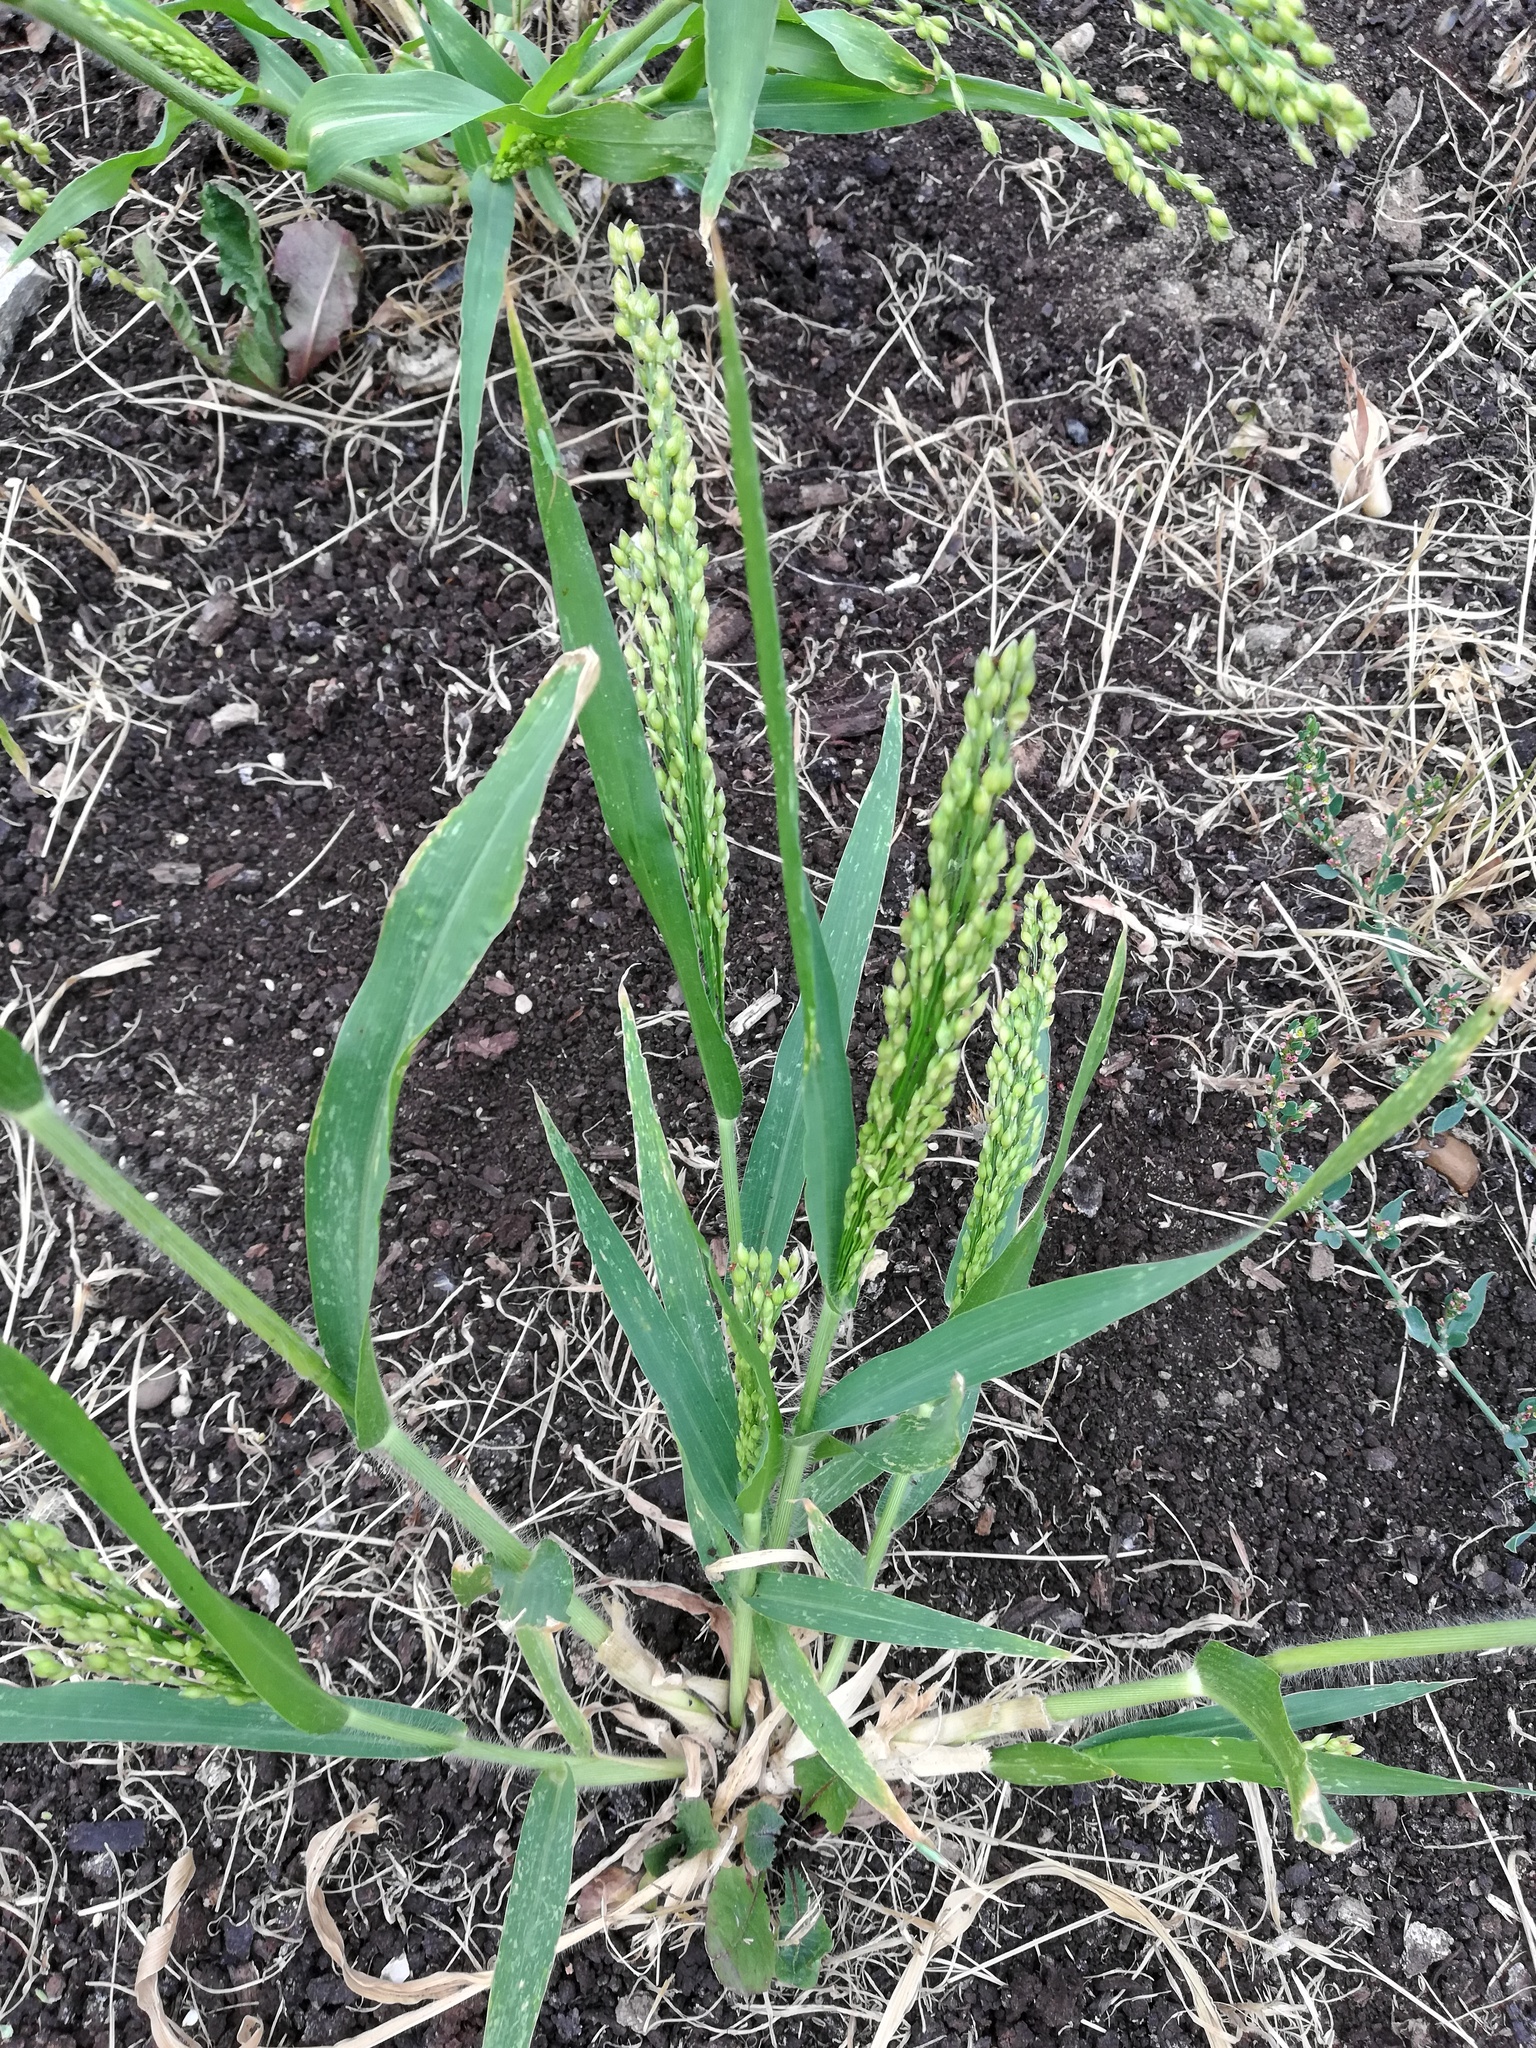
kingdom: Plantae
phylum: Tracheophyta
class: Liliopsida
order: Poales
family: Poaceae
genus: Panicum
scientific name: Panicum miliaceum
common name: Common millet
